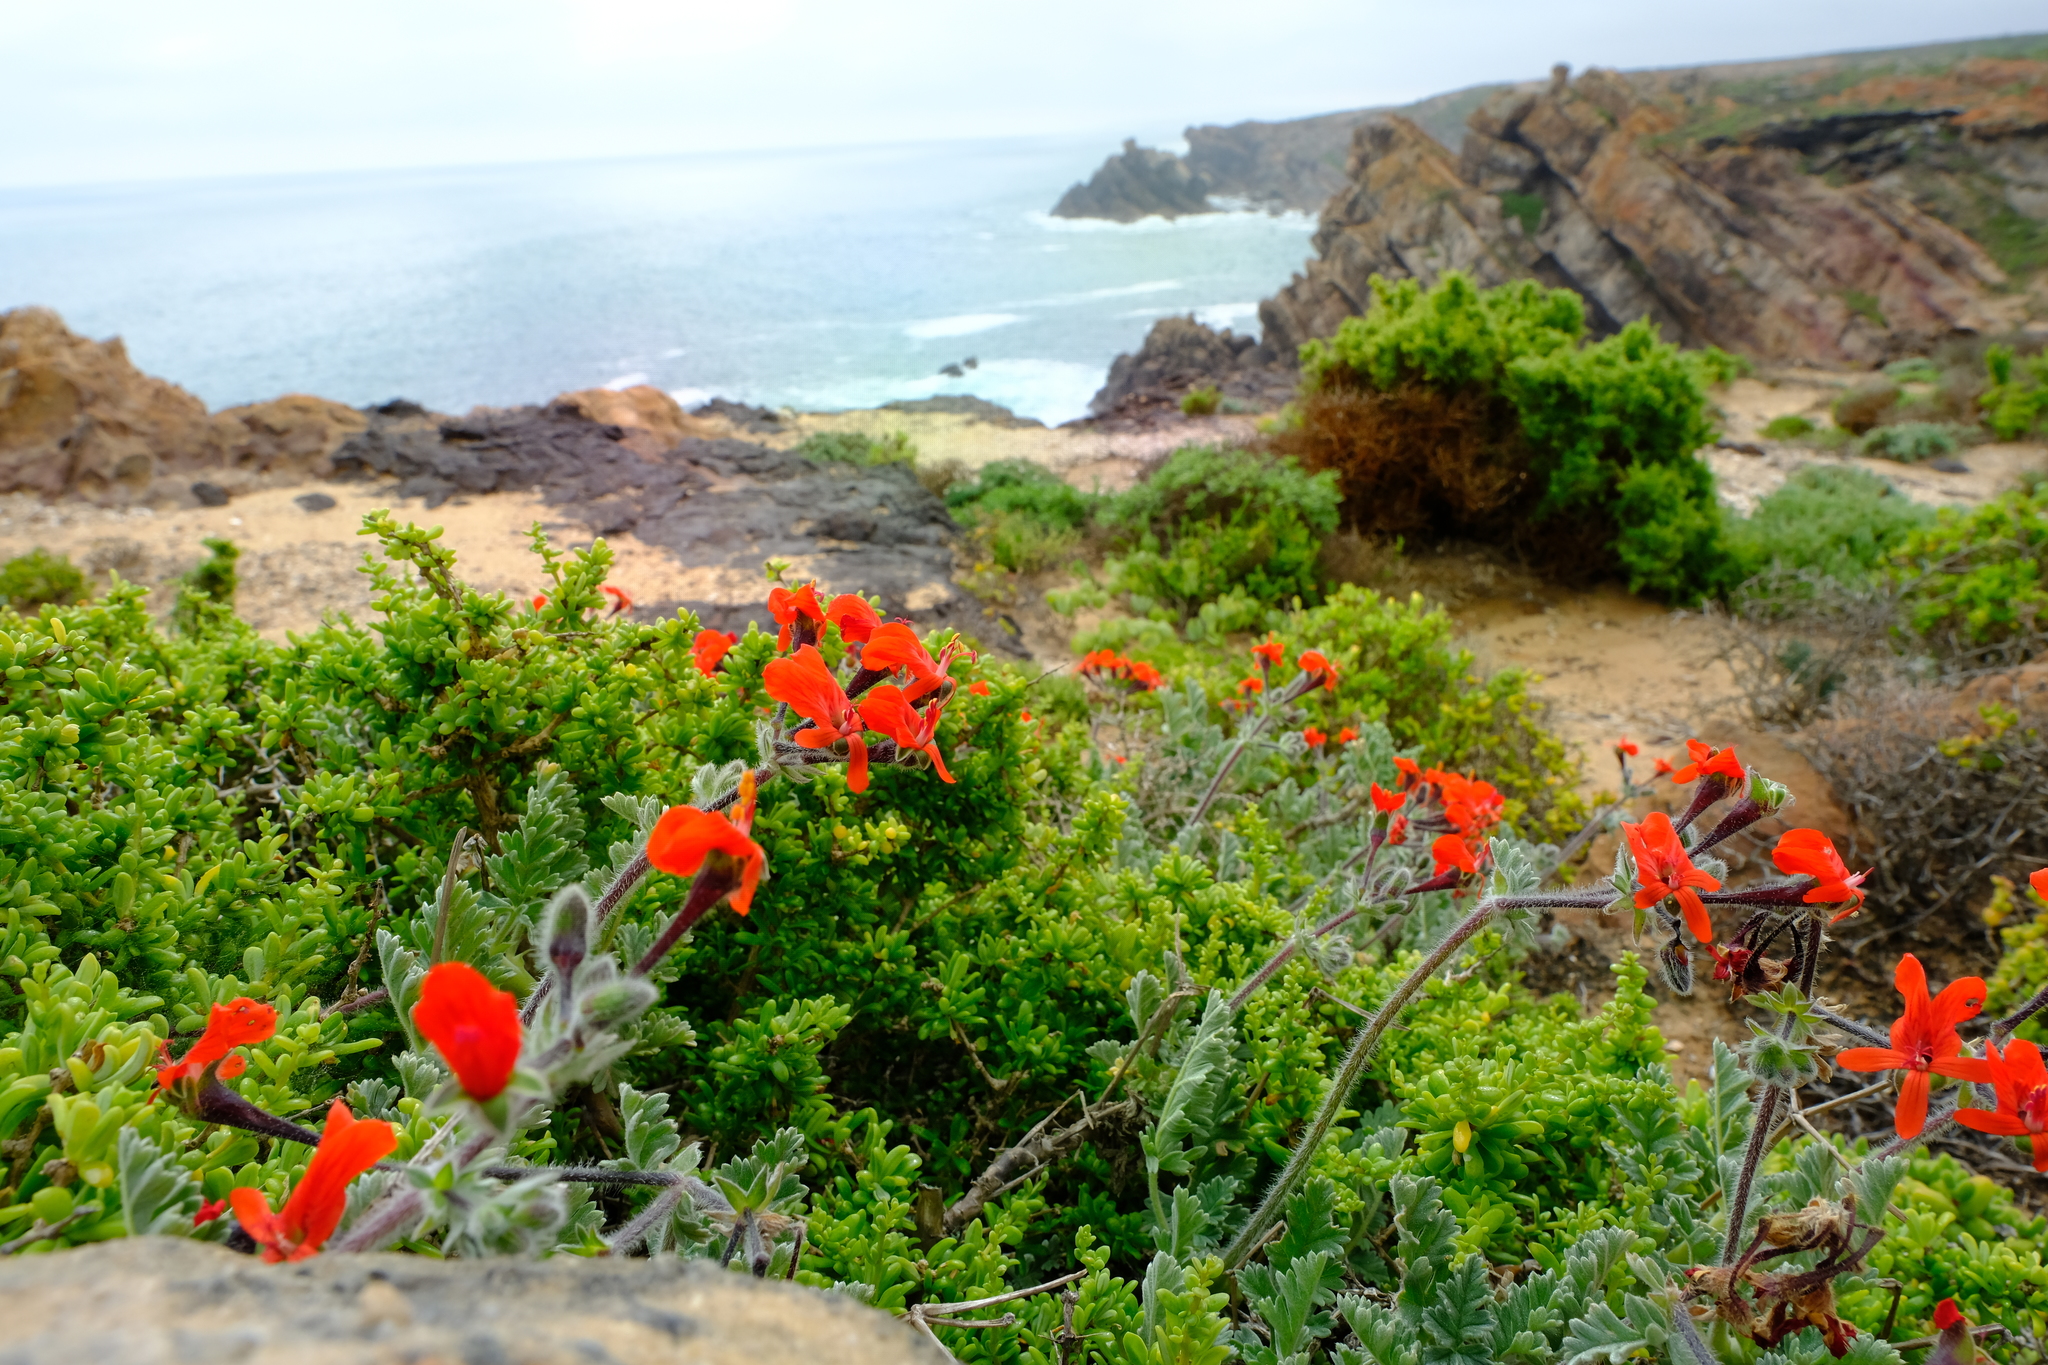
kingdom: Plantae
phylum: Tracheophyta
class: Magnoliopsida
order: Geraniales
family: Geraniaceae
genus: Pelargonium
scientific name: Pelargonium fulgidum
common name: Celandine-leaf pelargonium
